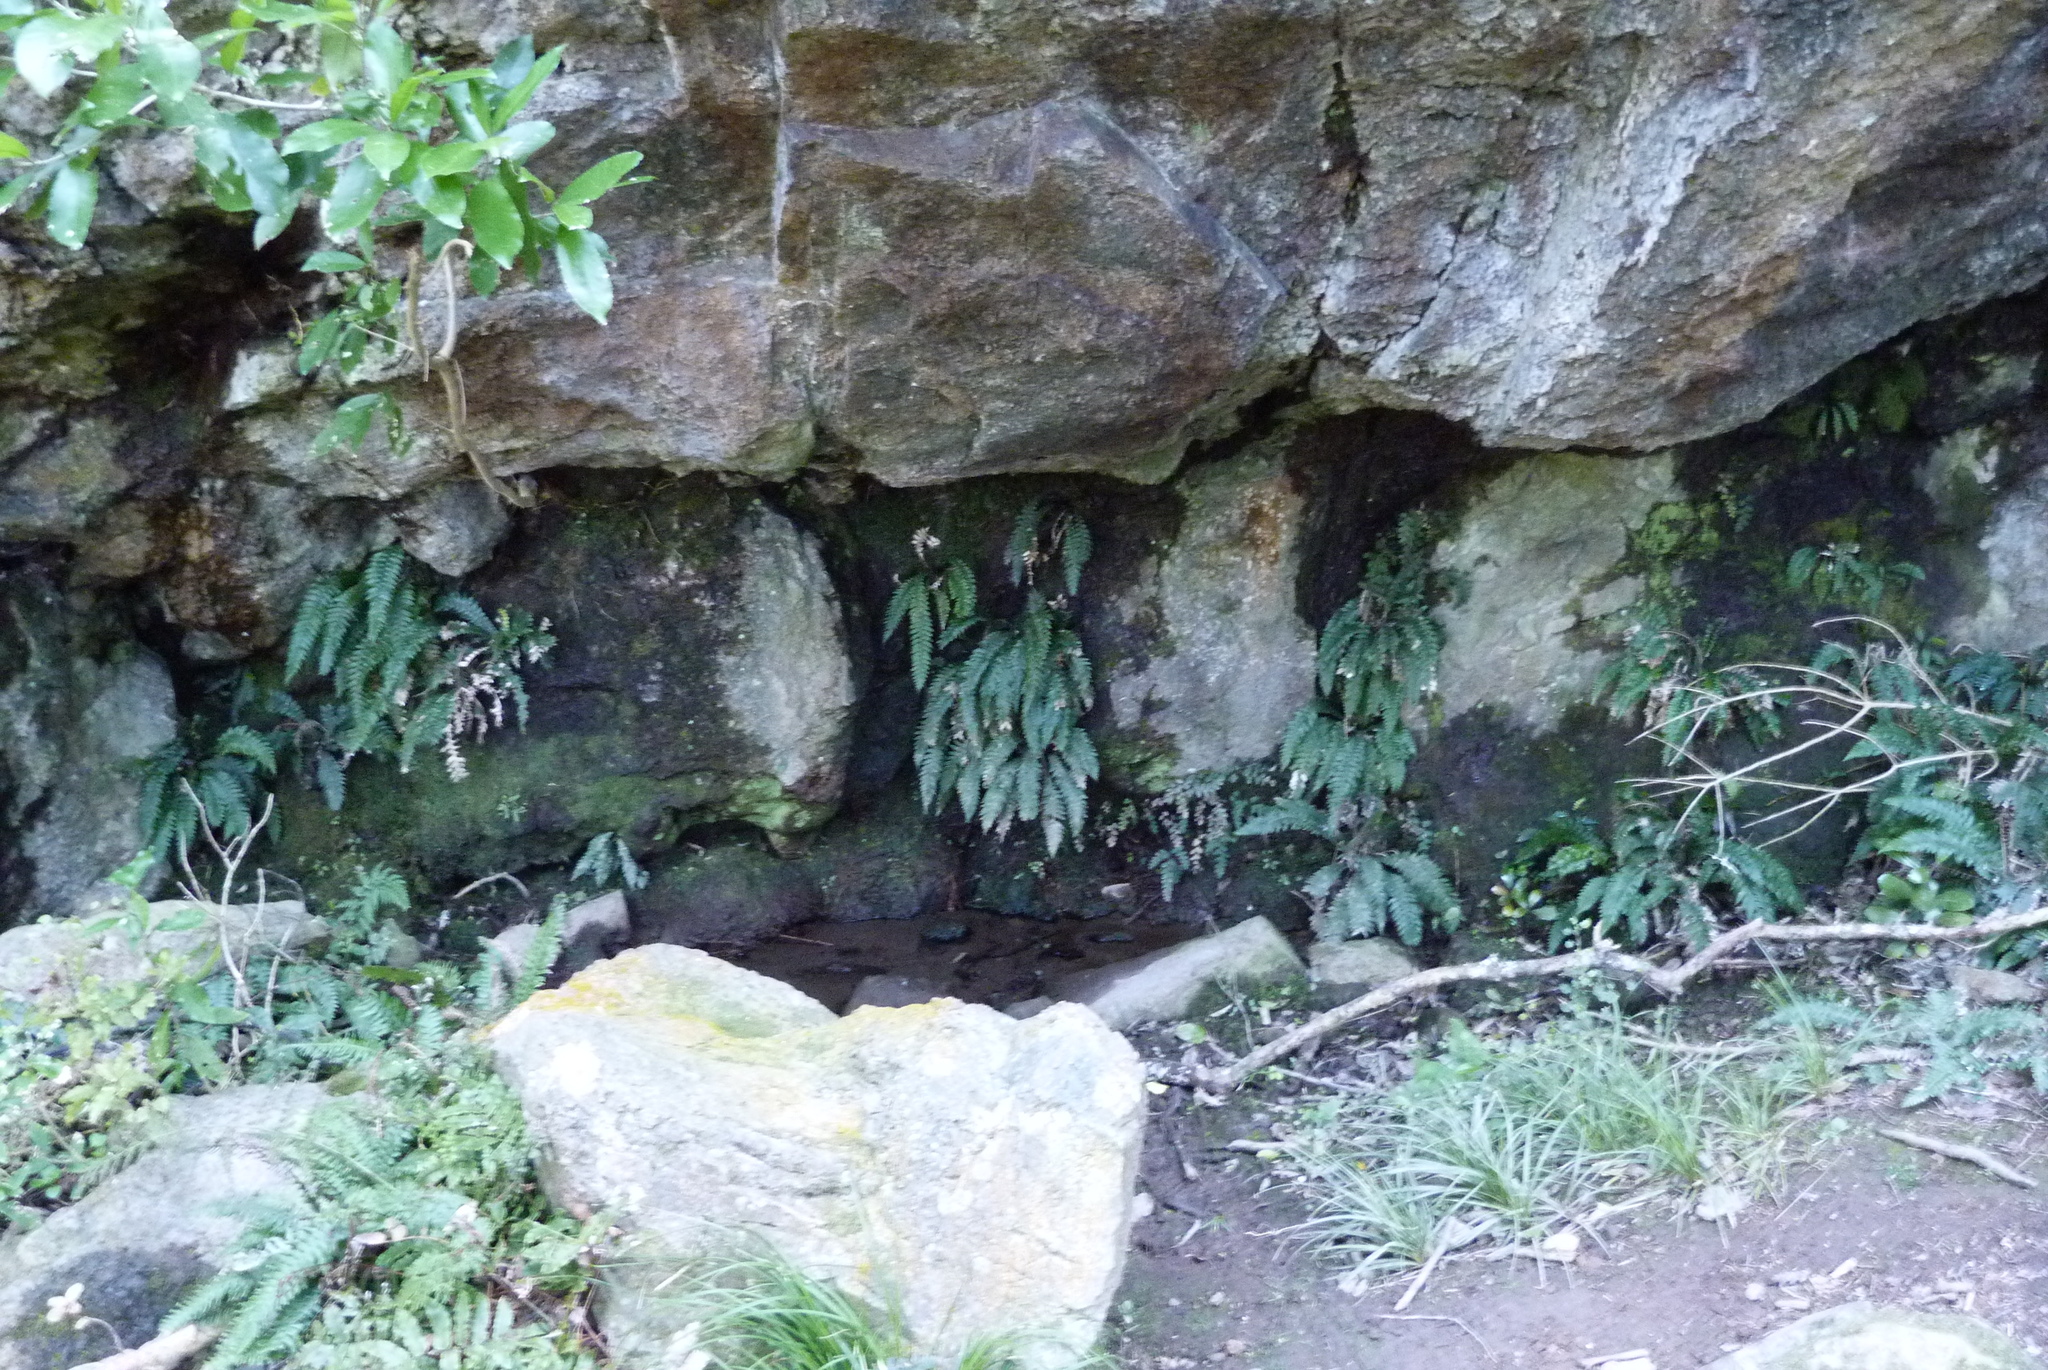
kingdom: Plantae
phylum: Tracheophyta
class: Polypodiopsida
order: Polypodiales
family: Blechnaceae
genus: Austroblechnum
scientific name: Austroblechnum lanceolatum
